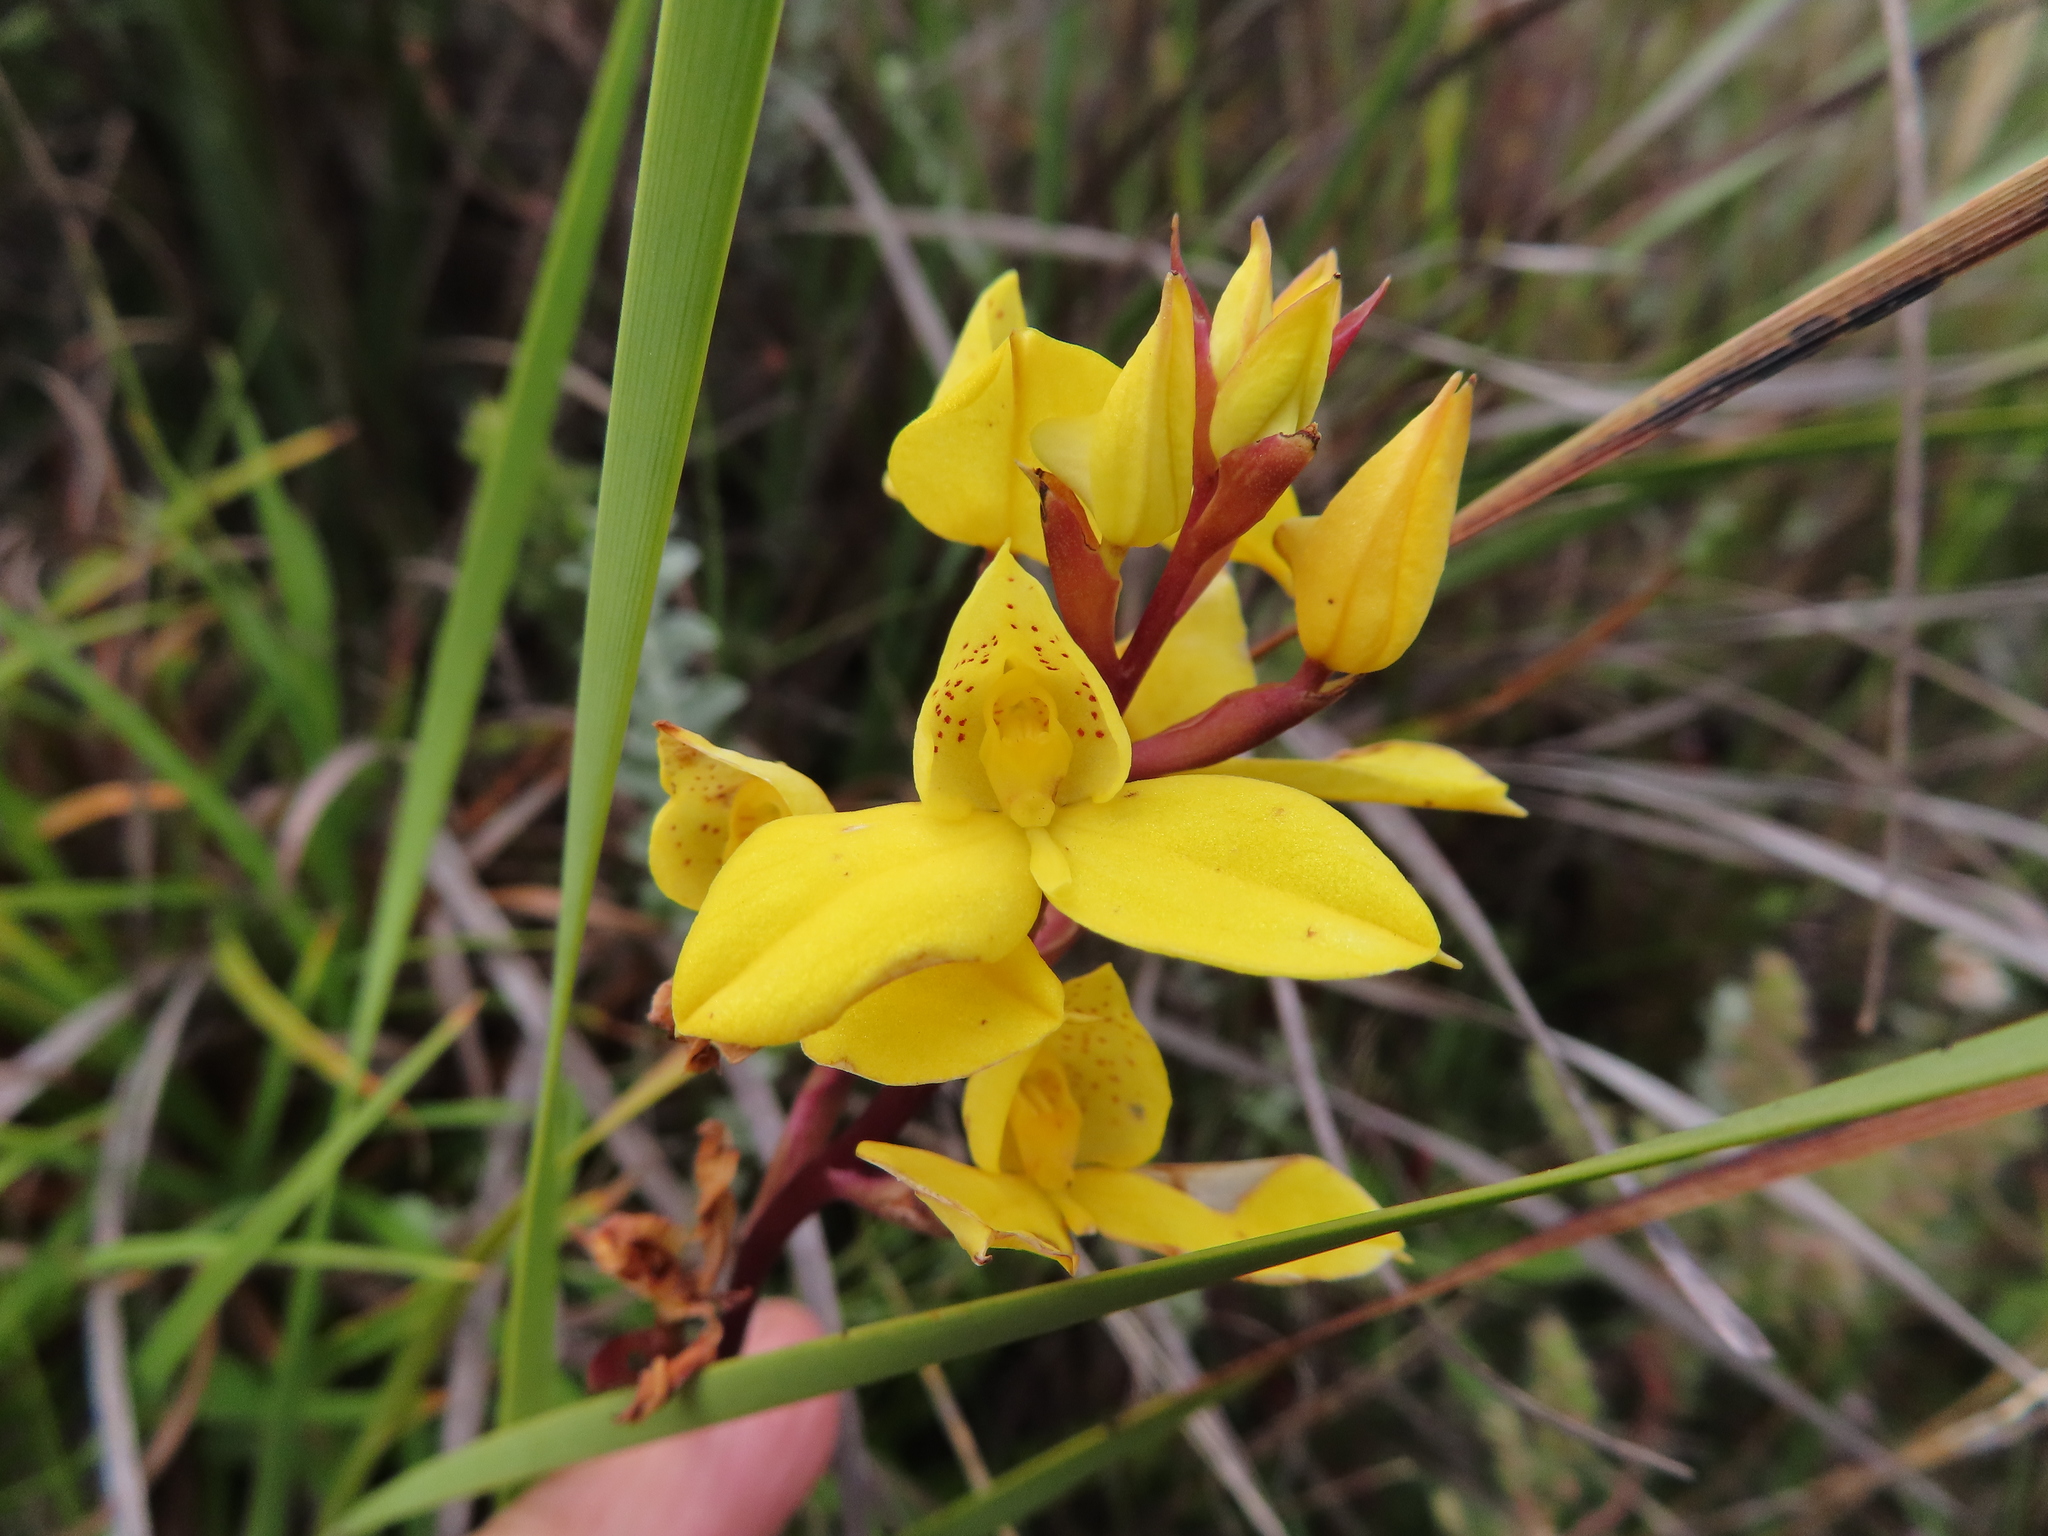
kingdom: Plantae
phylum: Tracheophyta
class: Liliopsida
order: Asparagales
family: Orchidaceae
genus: Disa
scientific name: Disa aurata
